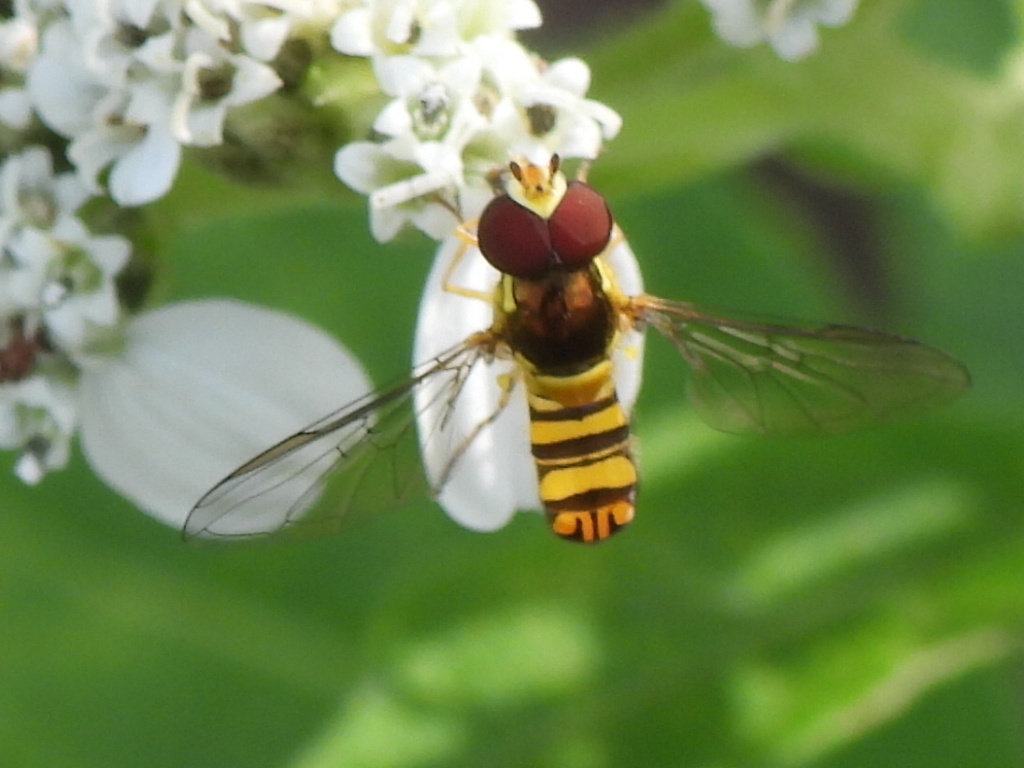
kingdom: Animalia
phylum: Arthropoda
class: Insecta
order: Diptera
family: Syrphidae
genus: Allograpta
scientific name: Allograpta obliqua
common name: Common oblique syrphid
